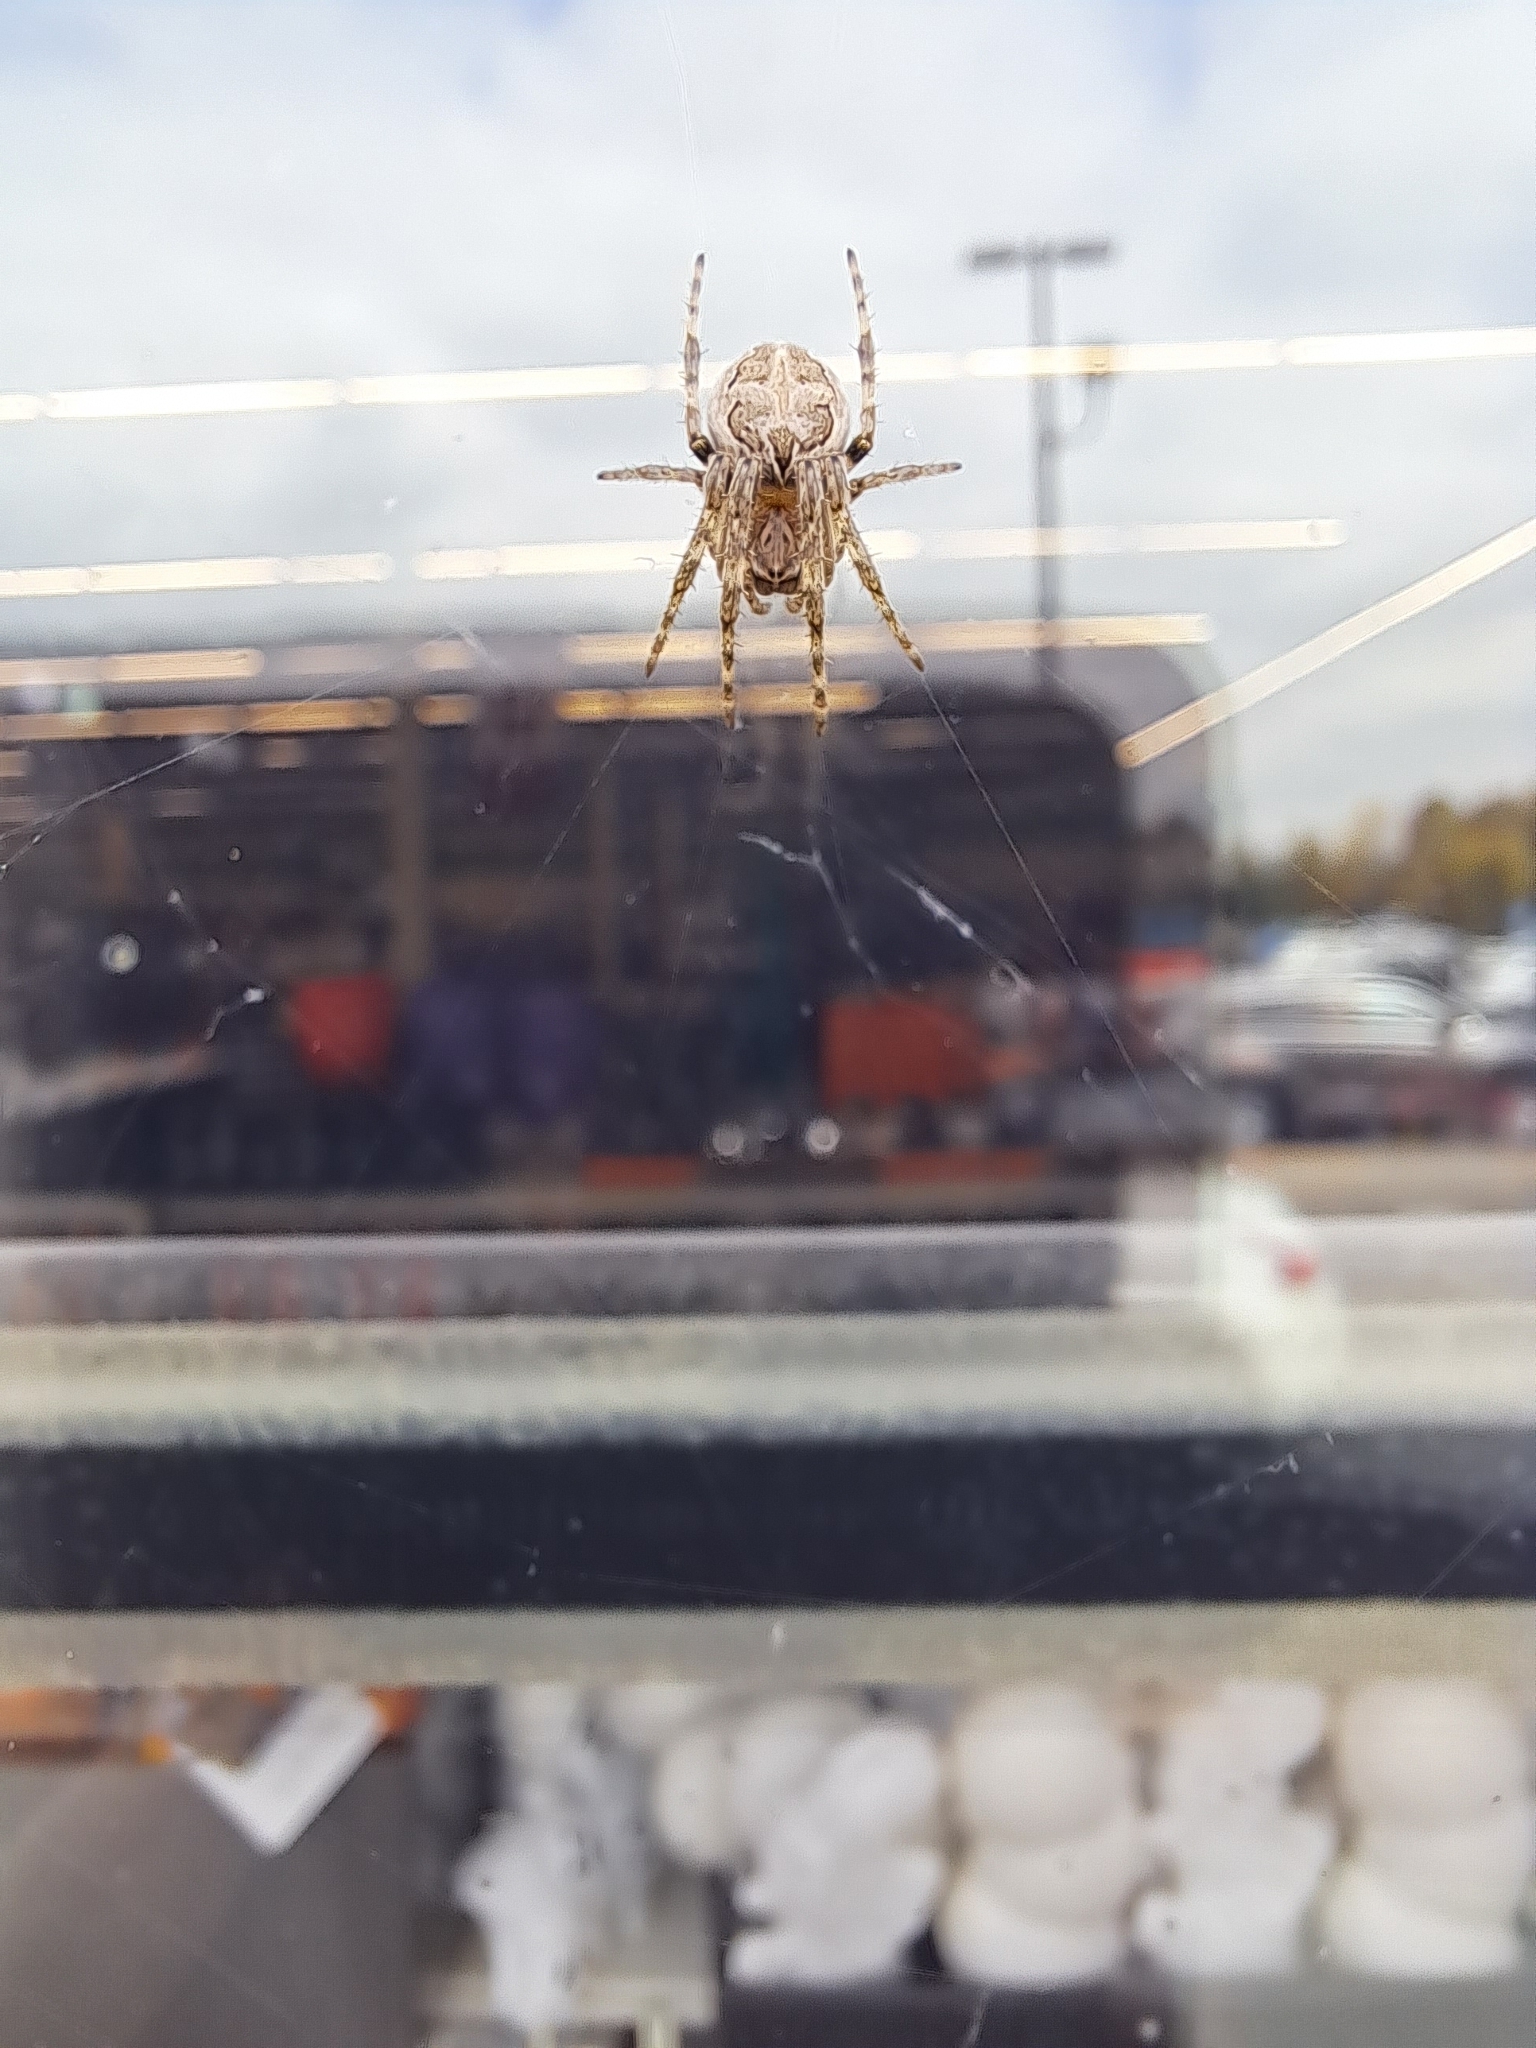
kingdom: Animalia
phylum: Arthropoda
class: Arachnida
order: Araneae
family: Araneidae
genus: Larinioides
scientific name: Larinioides sclopetarius
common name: Bridge orbweaver
